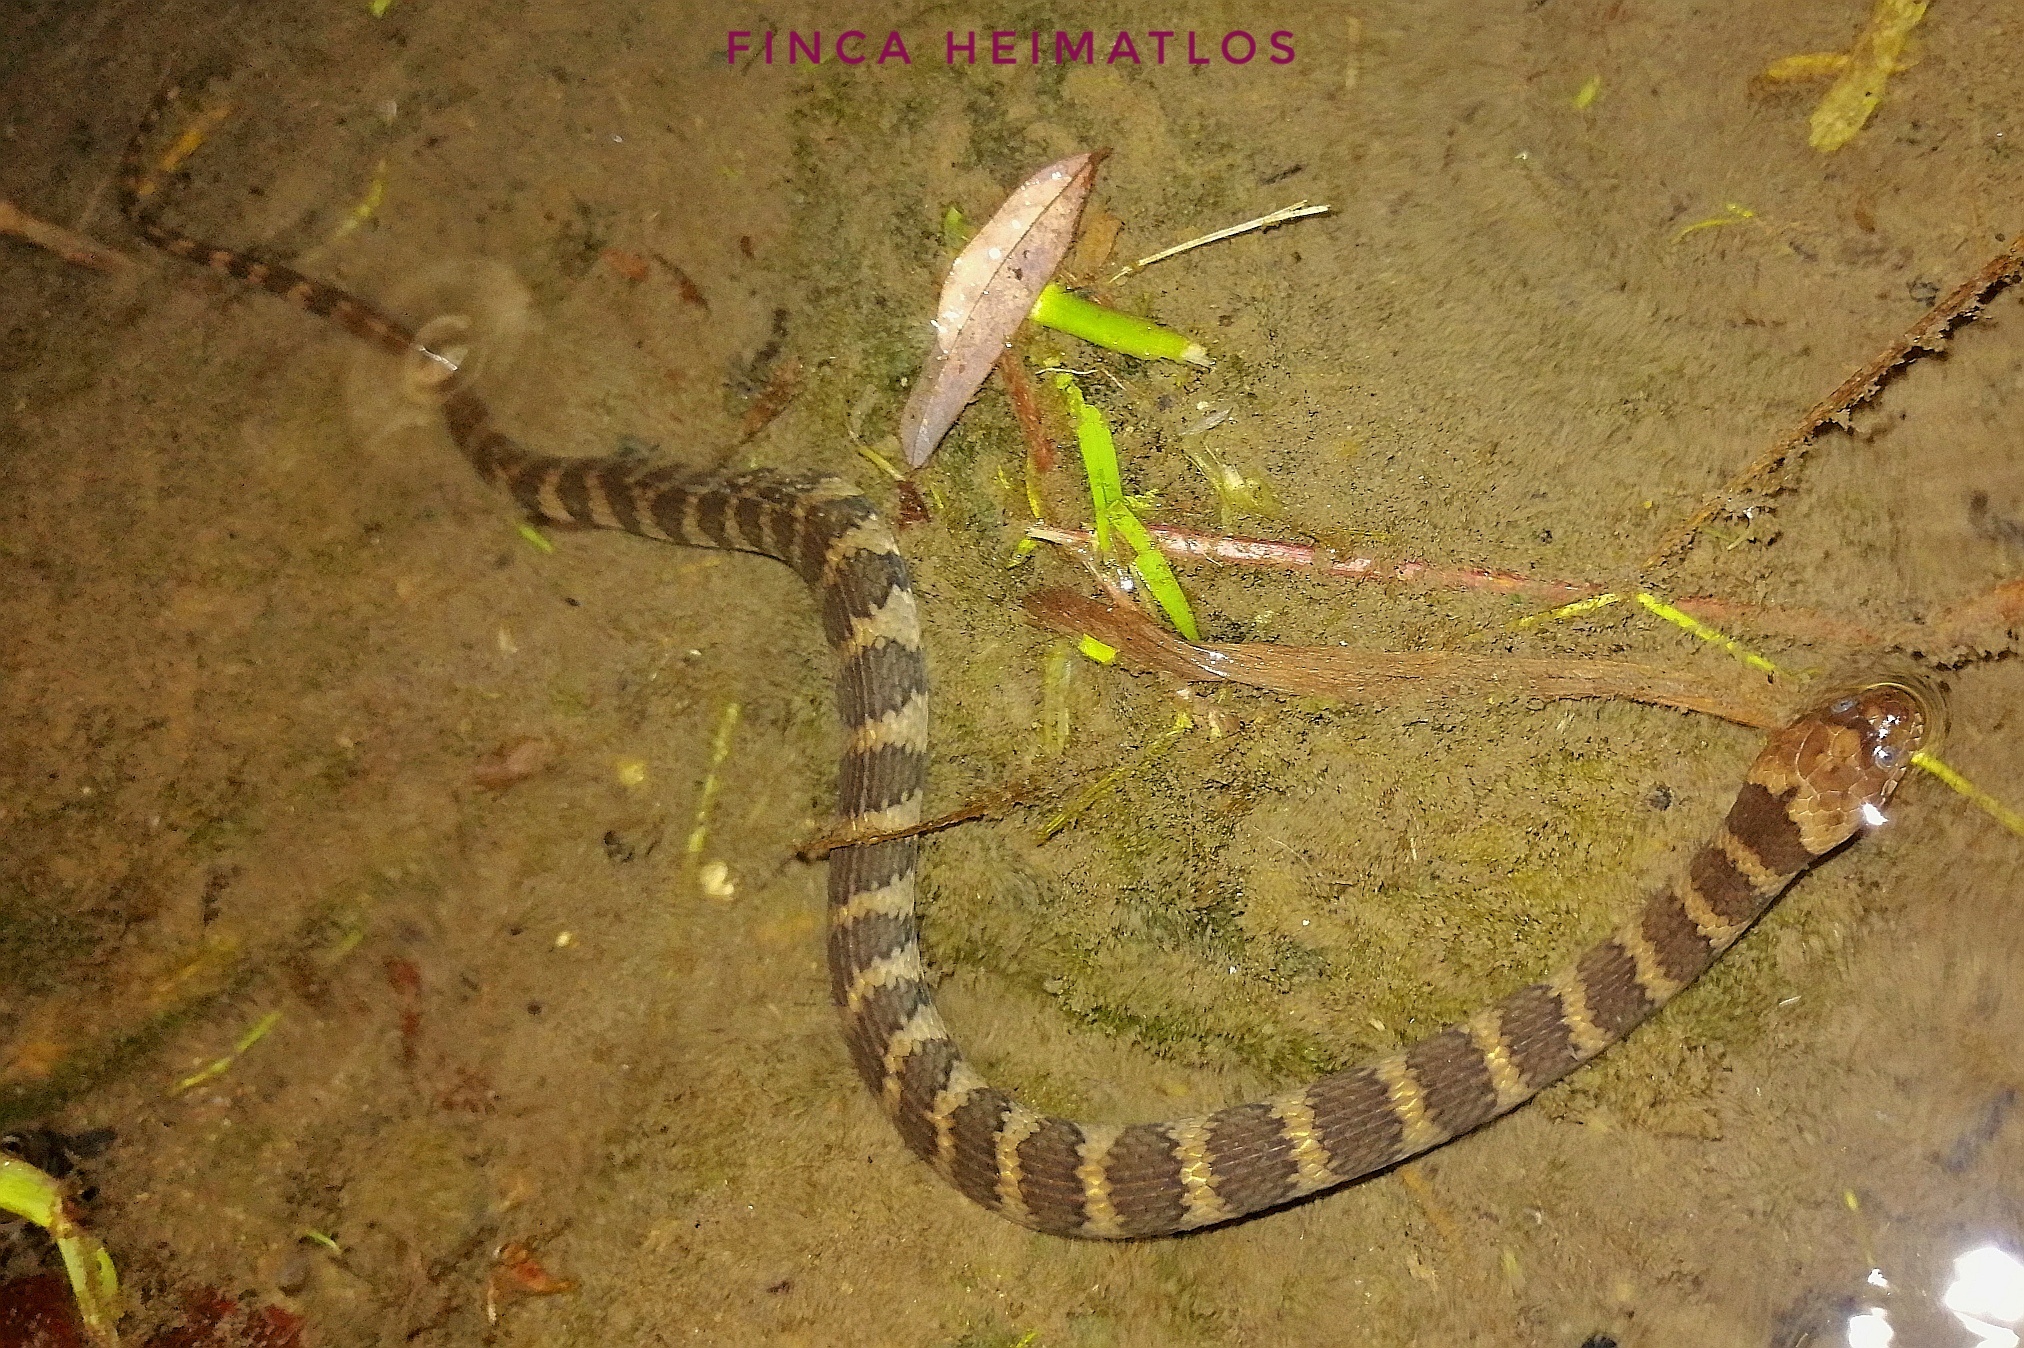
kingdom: Animalia
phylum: Chordata
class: Squamata
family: Colubridae
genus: Helicops
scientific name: Helicops angulatus
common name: Mountain keelback
